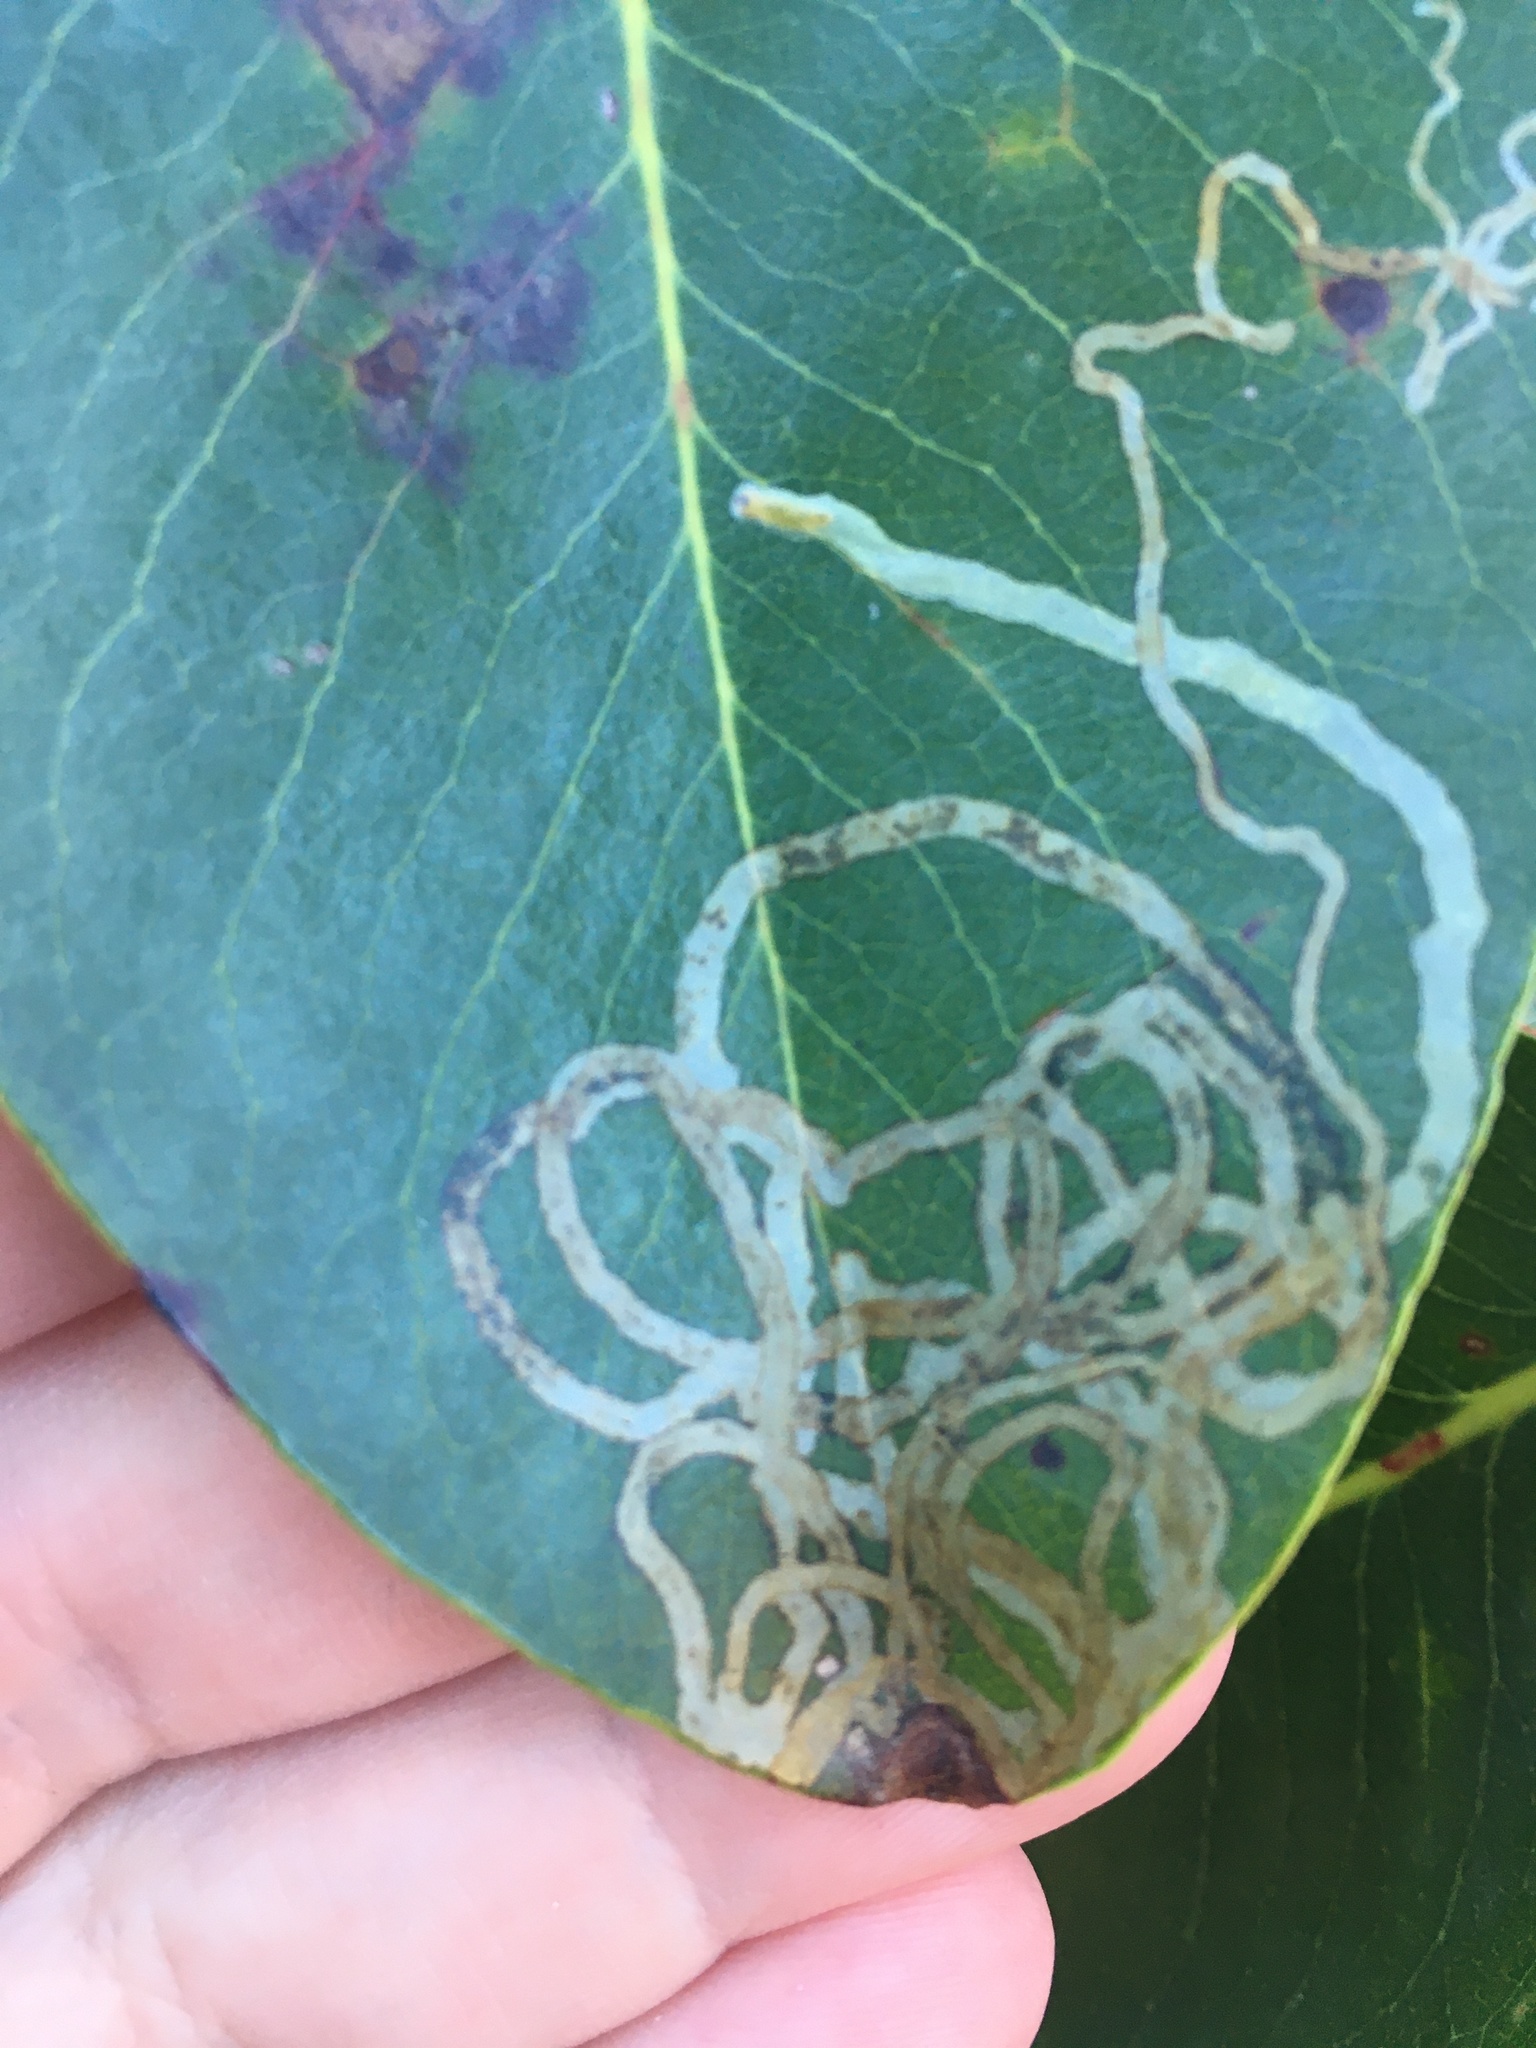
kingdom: Animalia
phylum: Arthropoda
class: Insecta
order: Lepidoptera
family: Gracillariidae
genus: Marmara
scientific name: Marmara arbutiella
